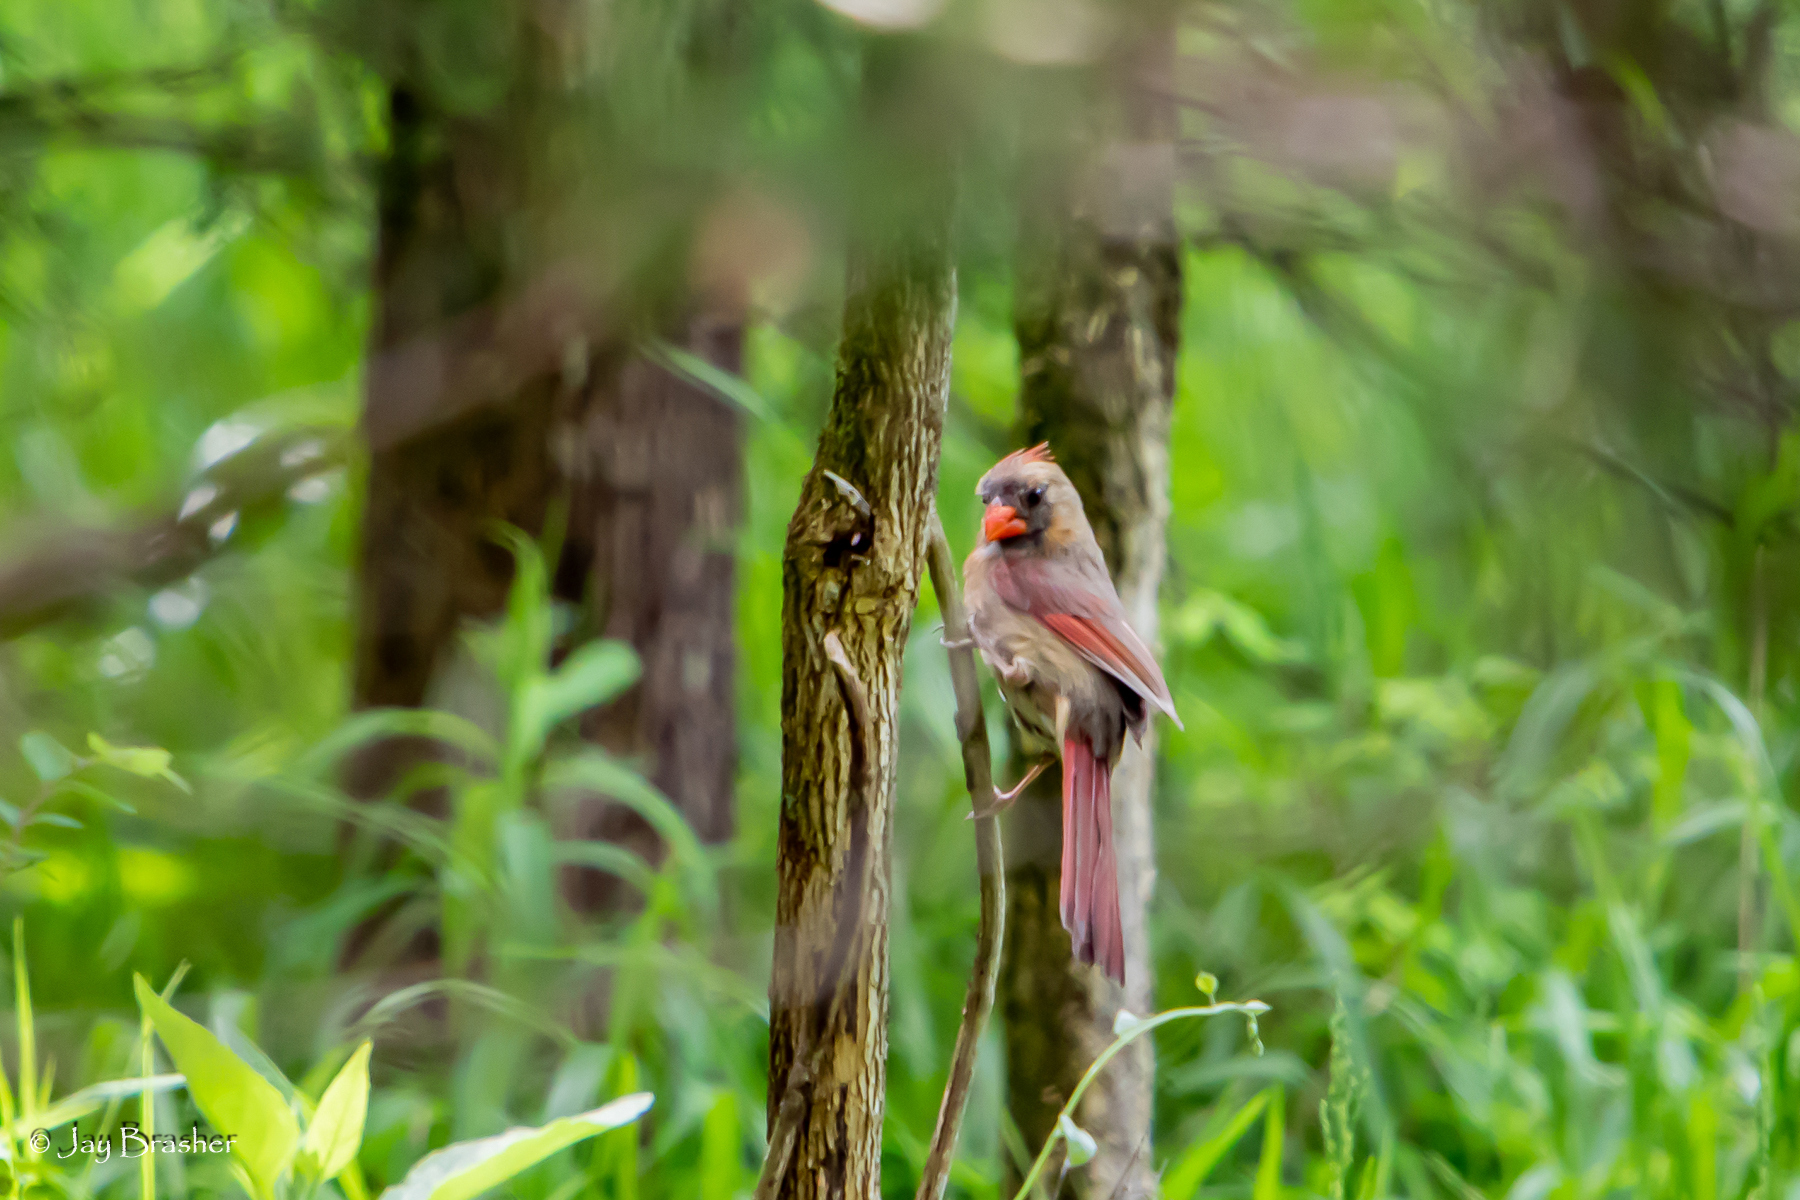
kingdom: Animalia
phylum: Chordata
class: Aves
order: Passeriformes
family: Cardinalidae
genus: Cardinalis
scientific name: Cardinalis cardinalis
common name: Northern cardinal
